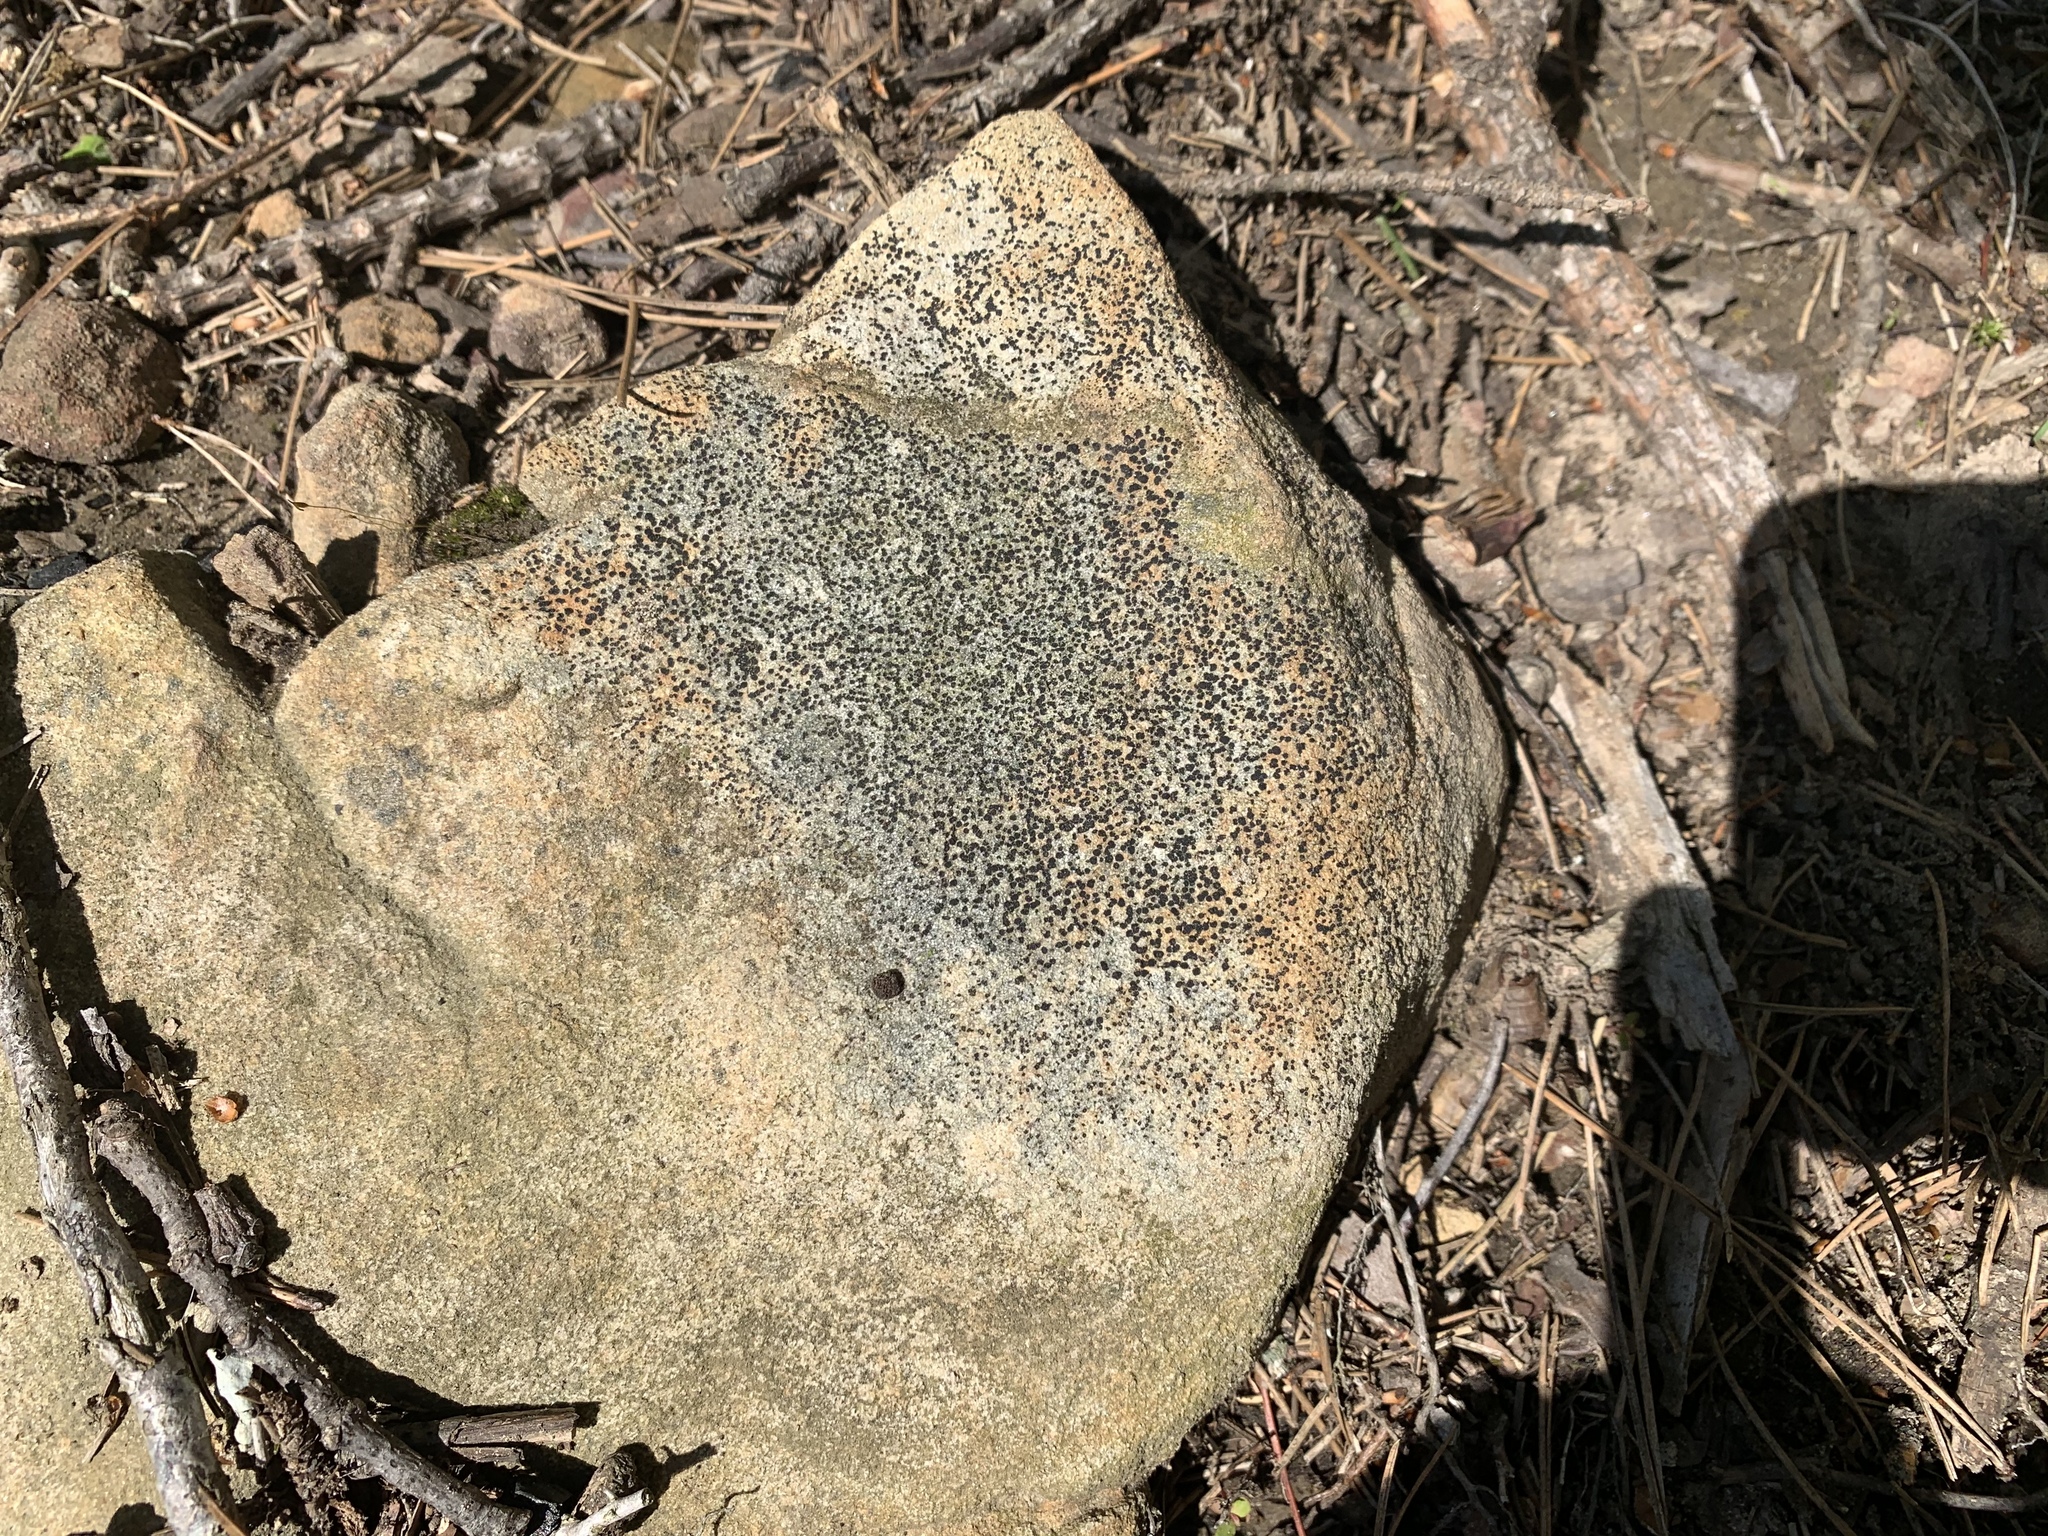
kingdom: Fungi
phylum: Ascomycota
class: Lecanoromycetes
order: Lecideales
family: Lecideaceae
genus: Porpidia
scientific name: Porpidia subsimplex
